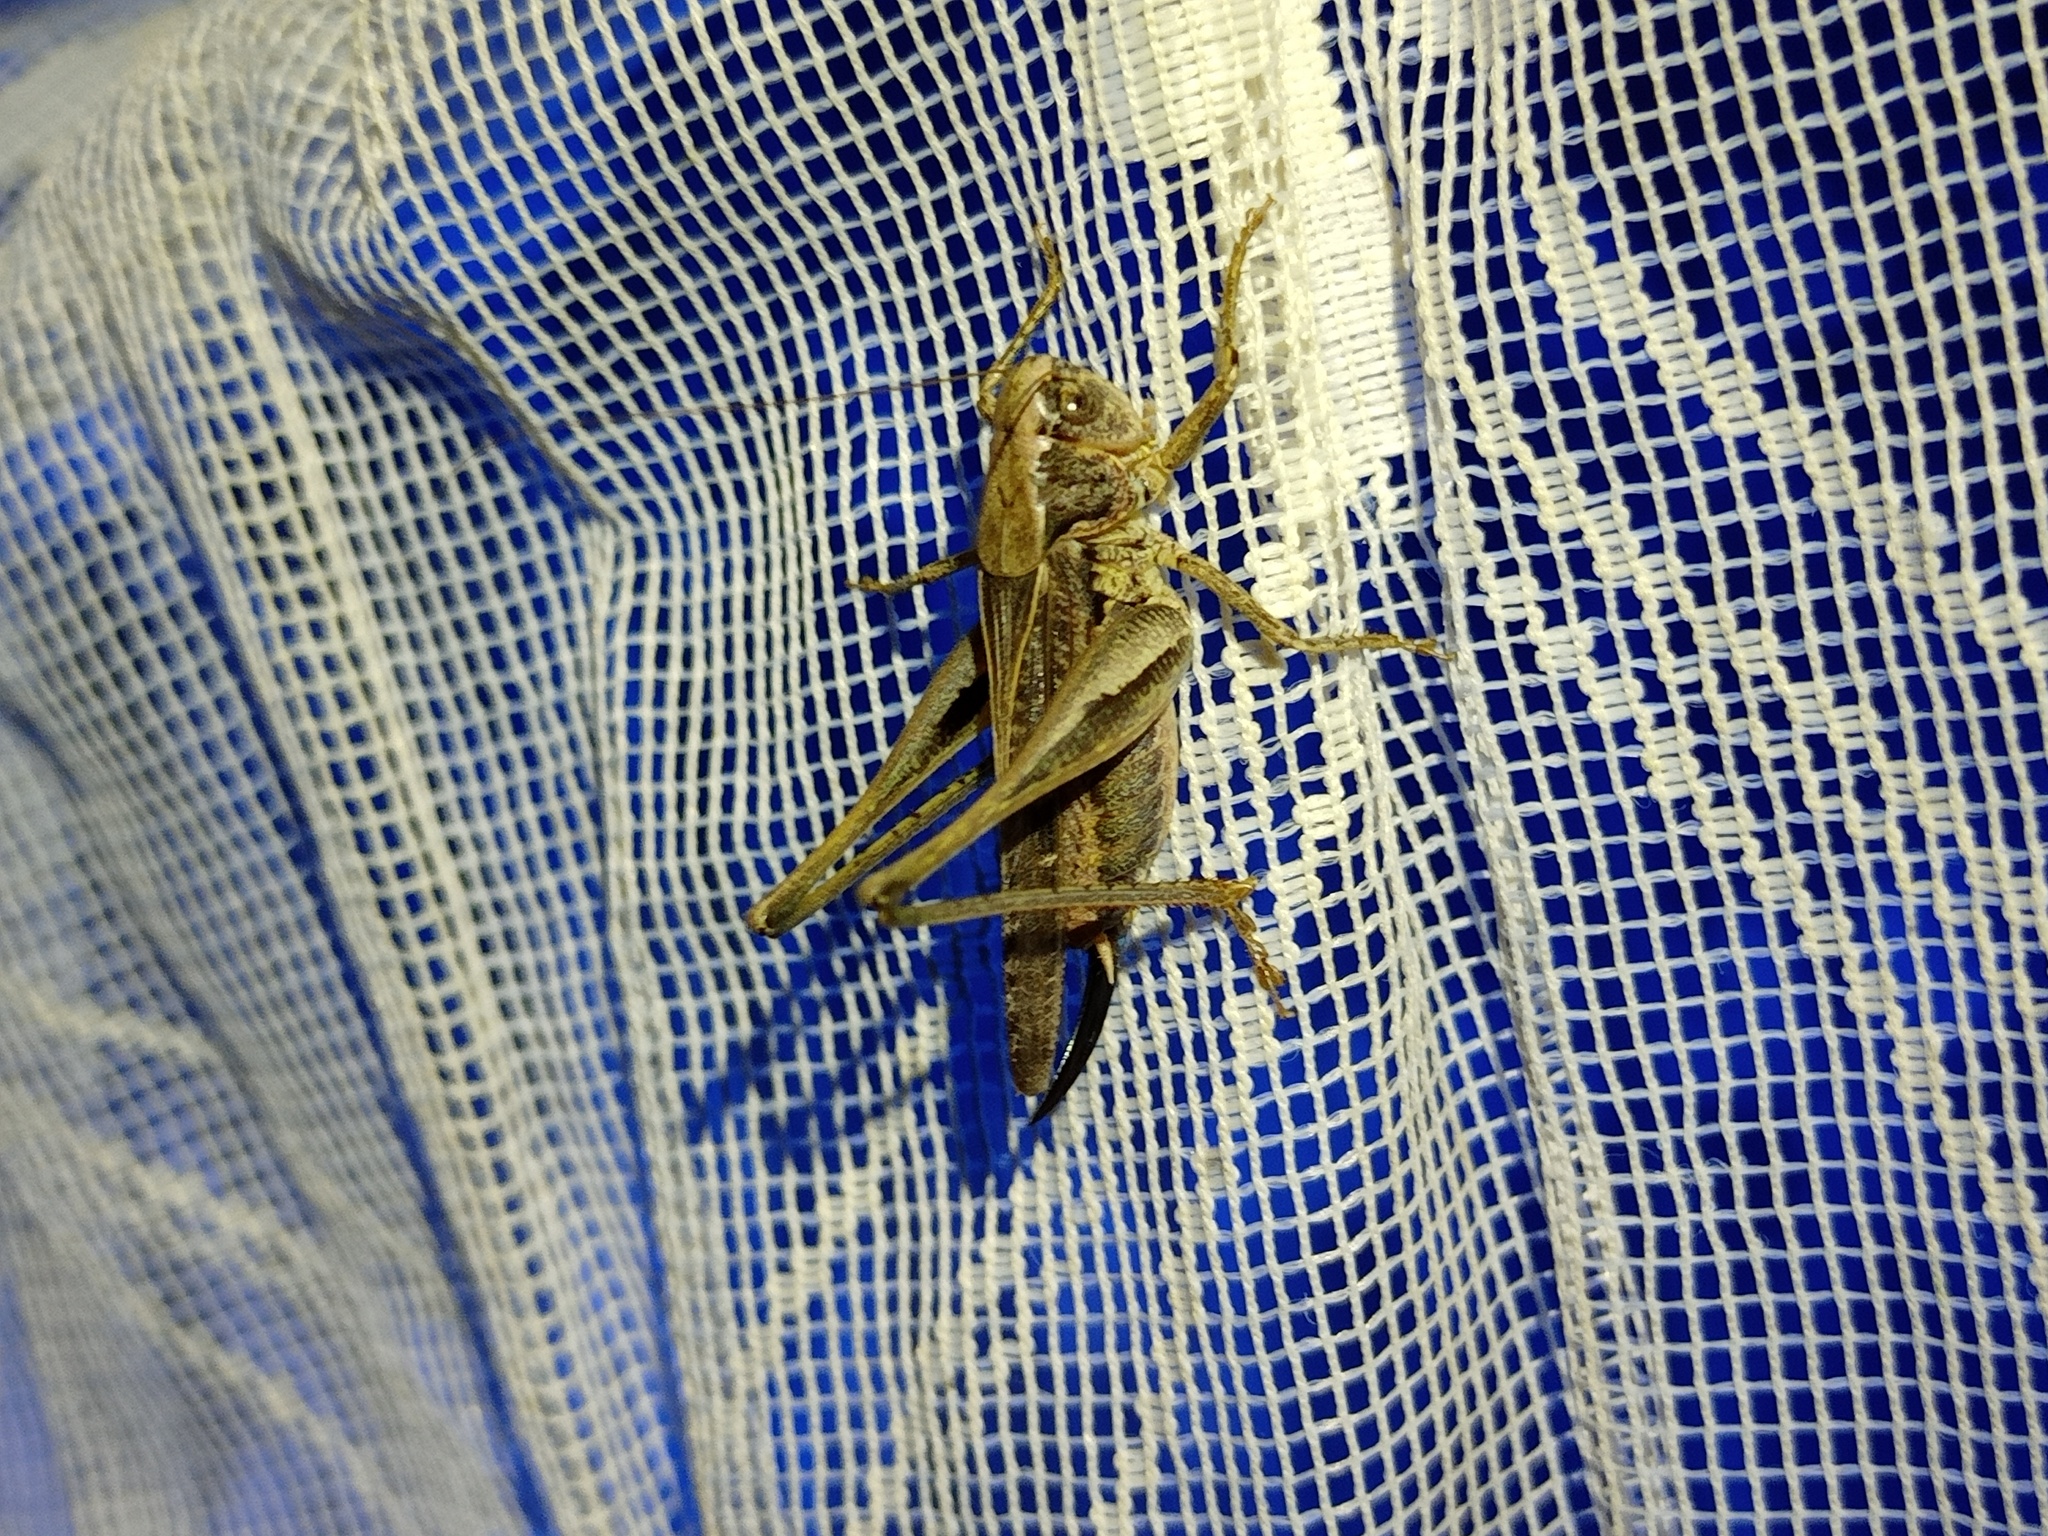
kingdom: Animalia
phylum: Arthropoda
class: Insecta
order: Orthoptera
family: Tettigoniidae
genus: Platycleis
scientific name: Platycleis albopunctata
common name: Grey bush-cricket
